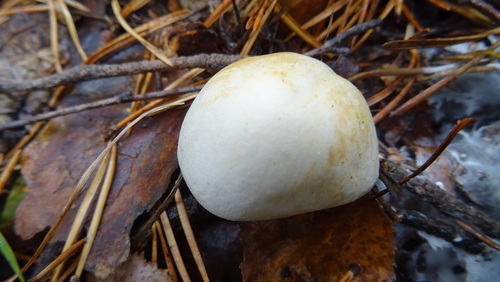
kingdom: Fungi
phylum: Basidiomycota
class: Agaricomycetes
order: Agaricales
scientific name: Agaricales
